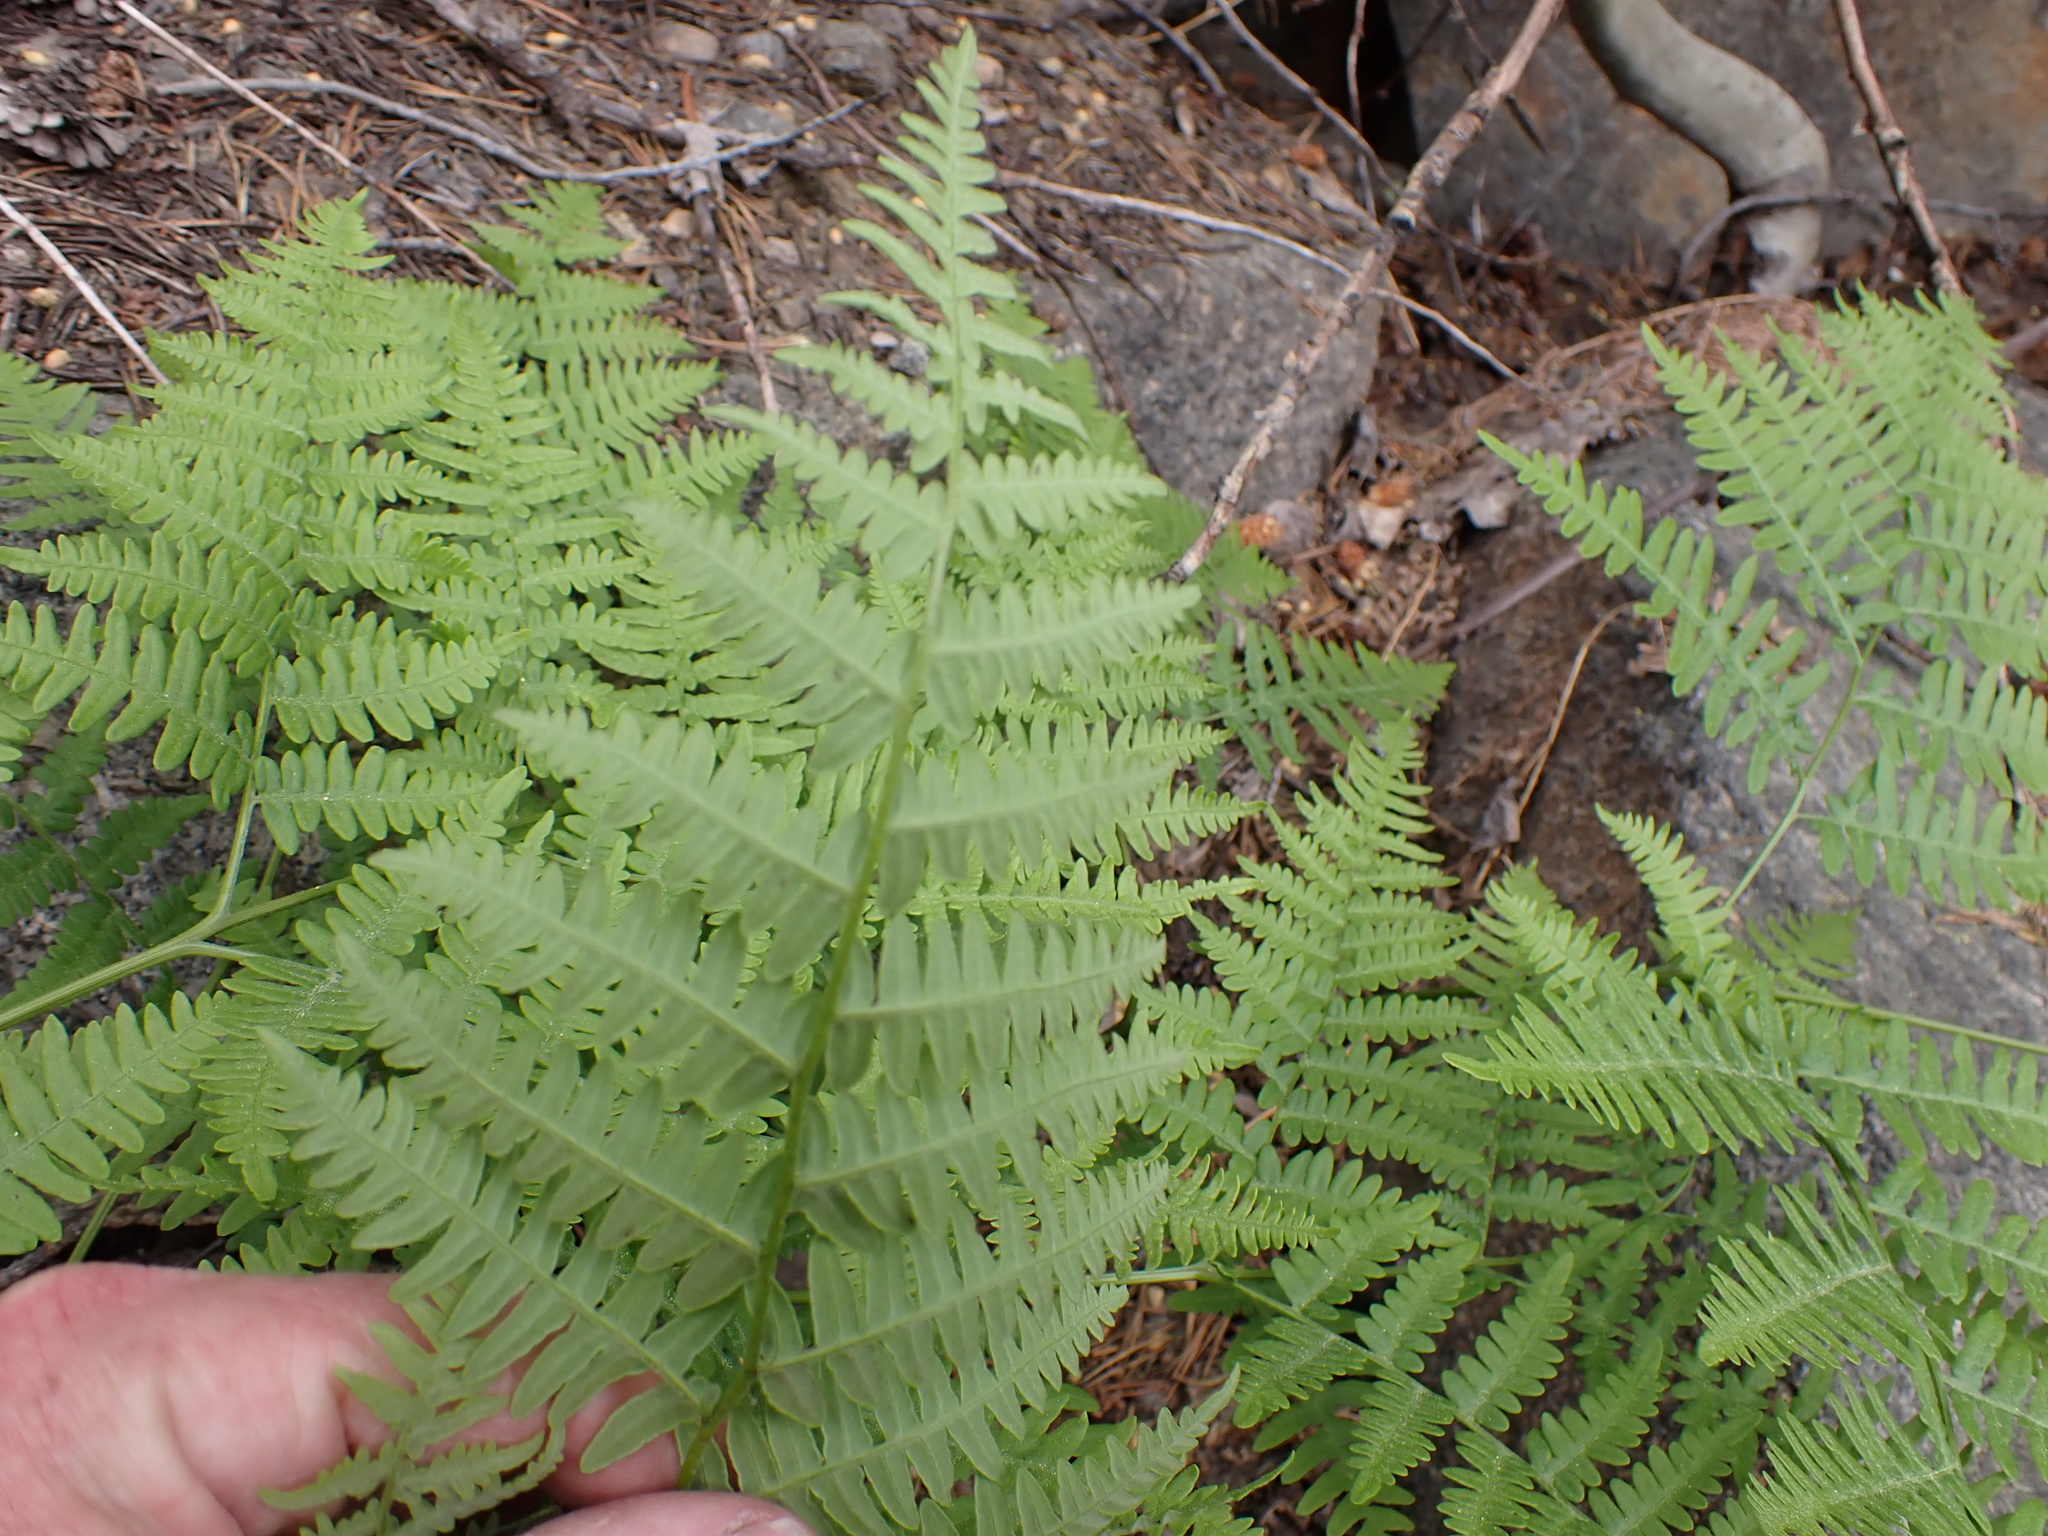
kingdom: Plantae
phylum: Tracheophyta
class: Polypodiopsida
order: Polypodiales
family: Dennstaedtiaceae
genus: Pteridium
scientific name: Pteridium aquilinum
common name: Bracken
